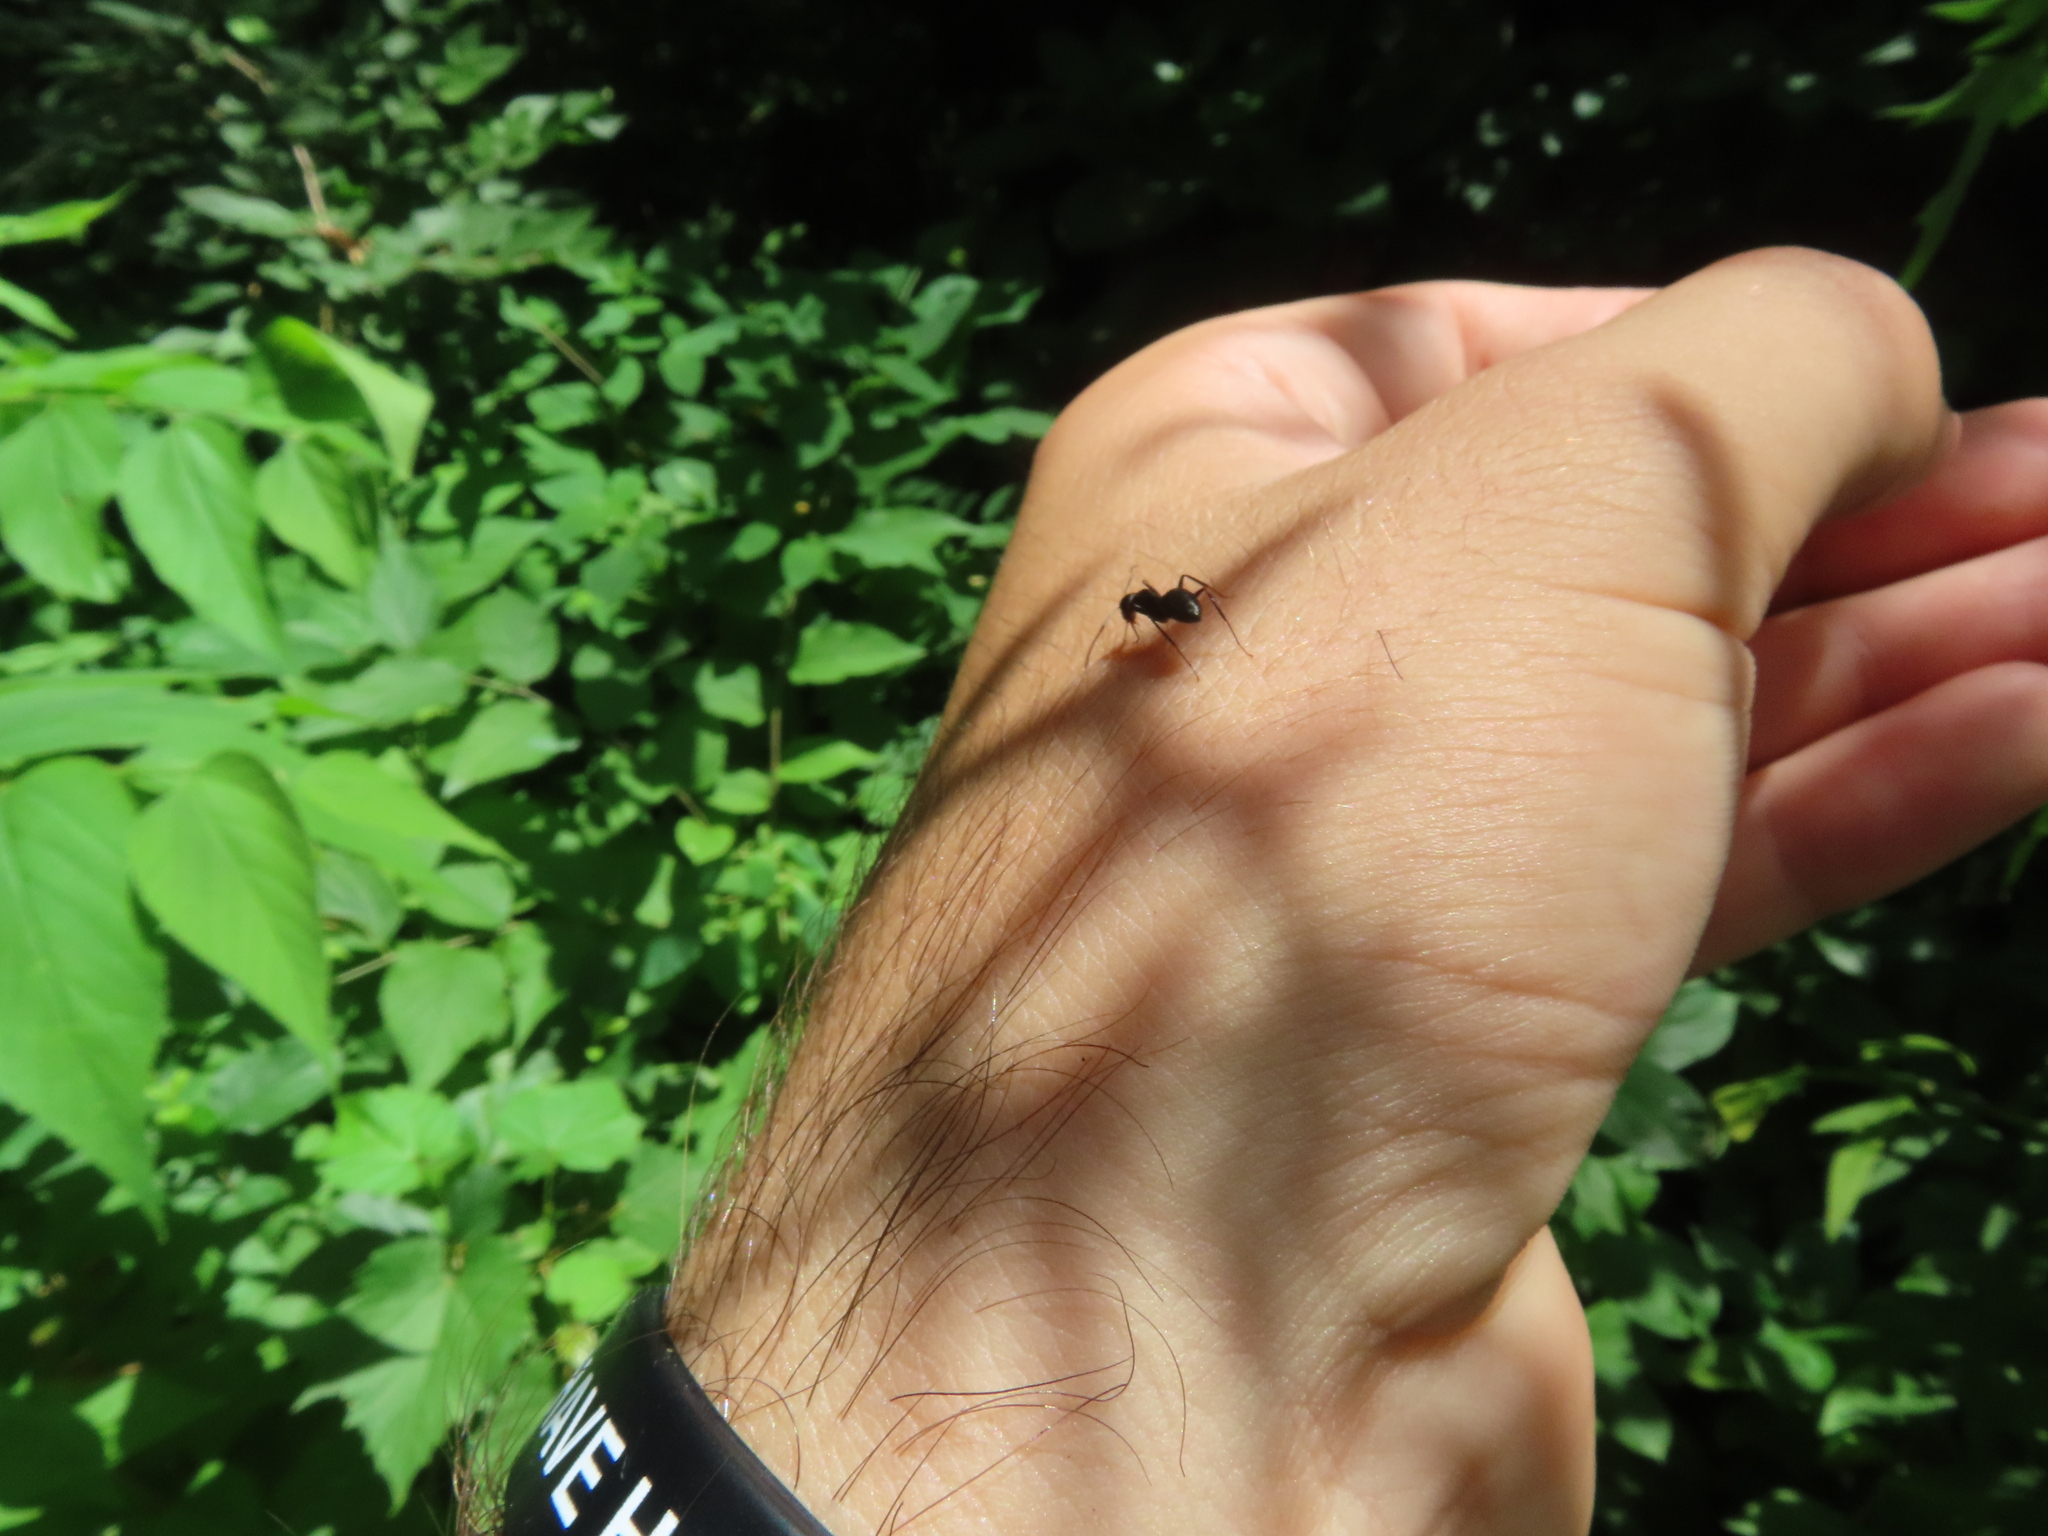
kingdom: Animalia
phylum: Arthropoda
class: Insecta
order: Hymenoptera
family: Formicidae
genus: Camponotus
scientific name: Camponotus pennsylvanicus
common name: Black carpenter ant
